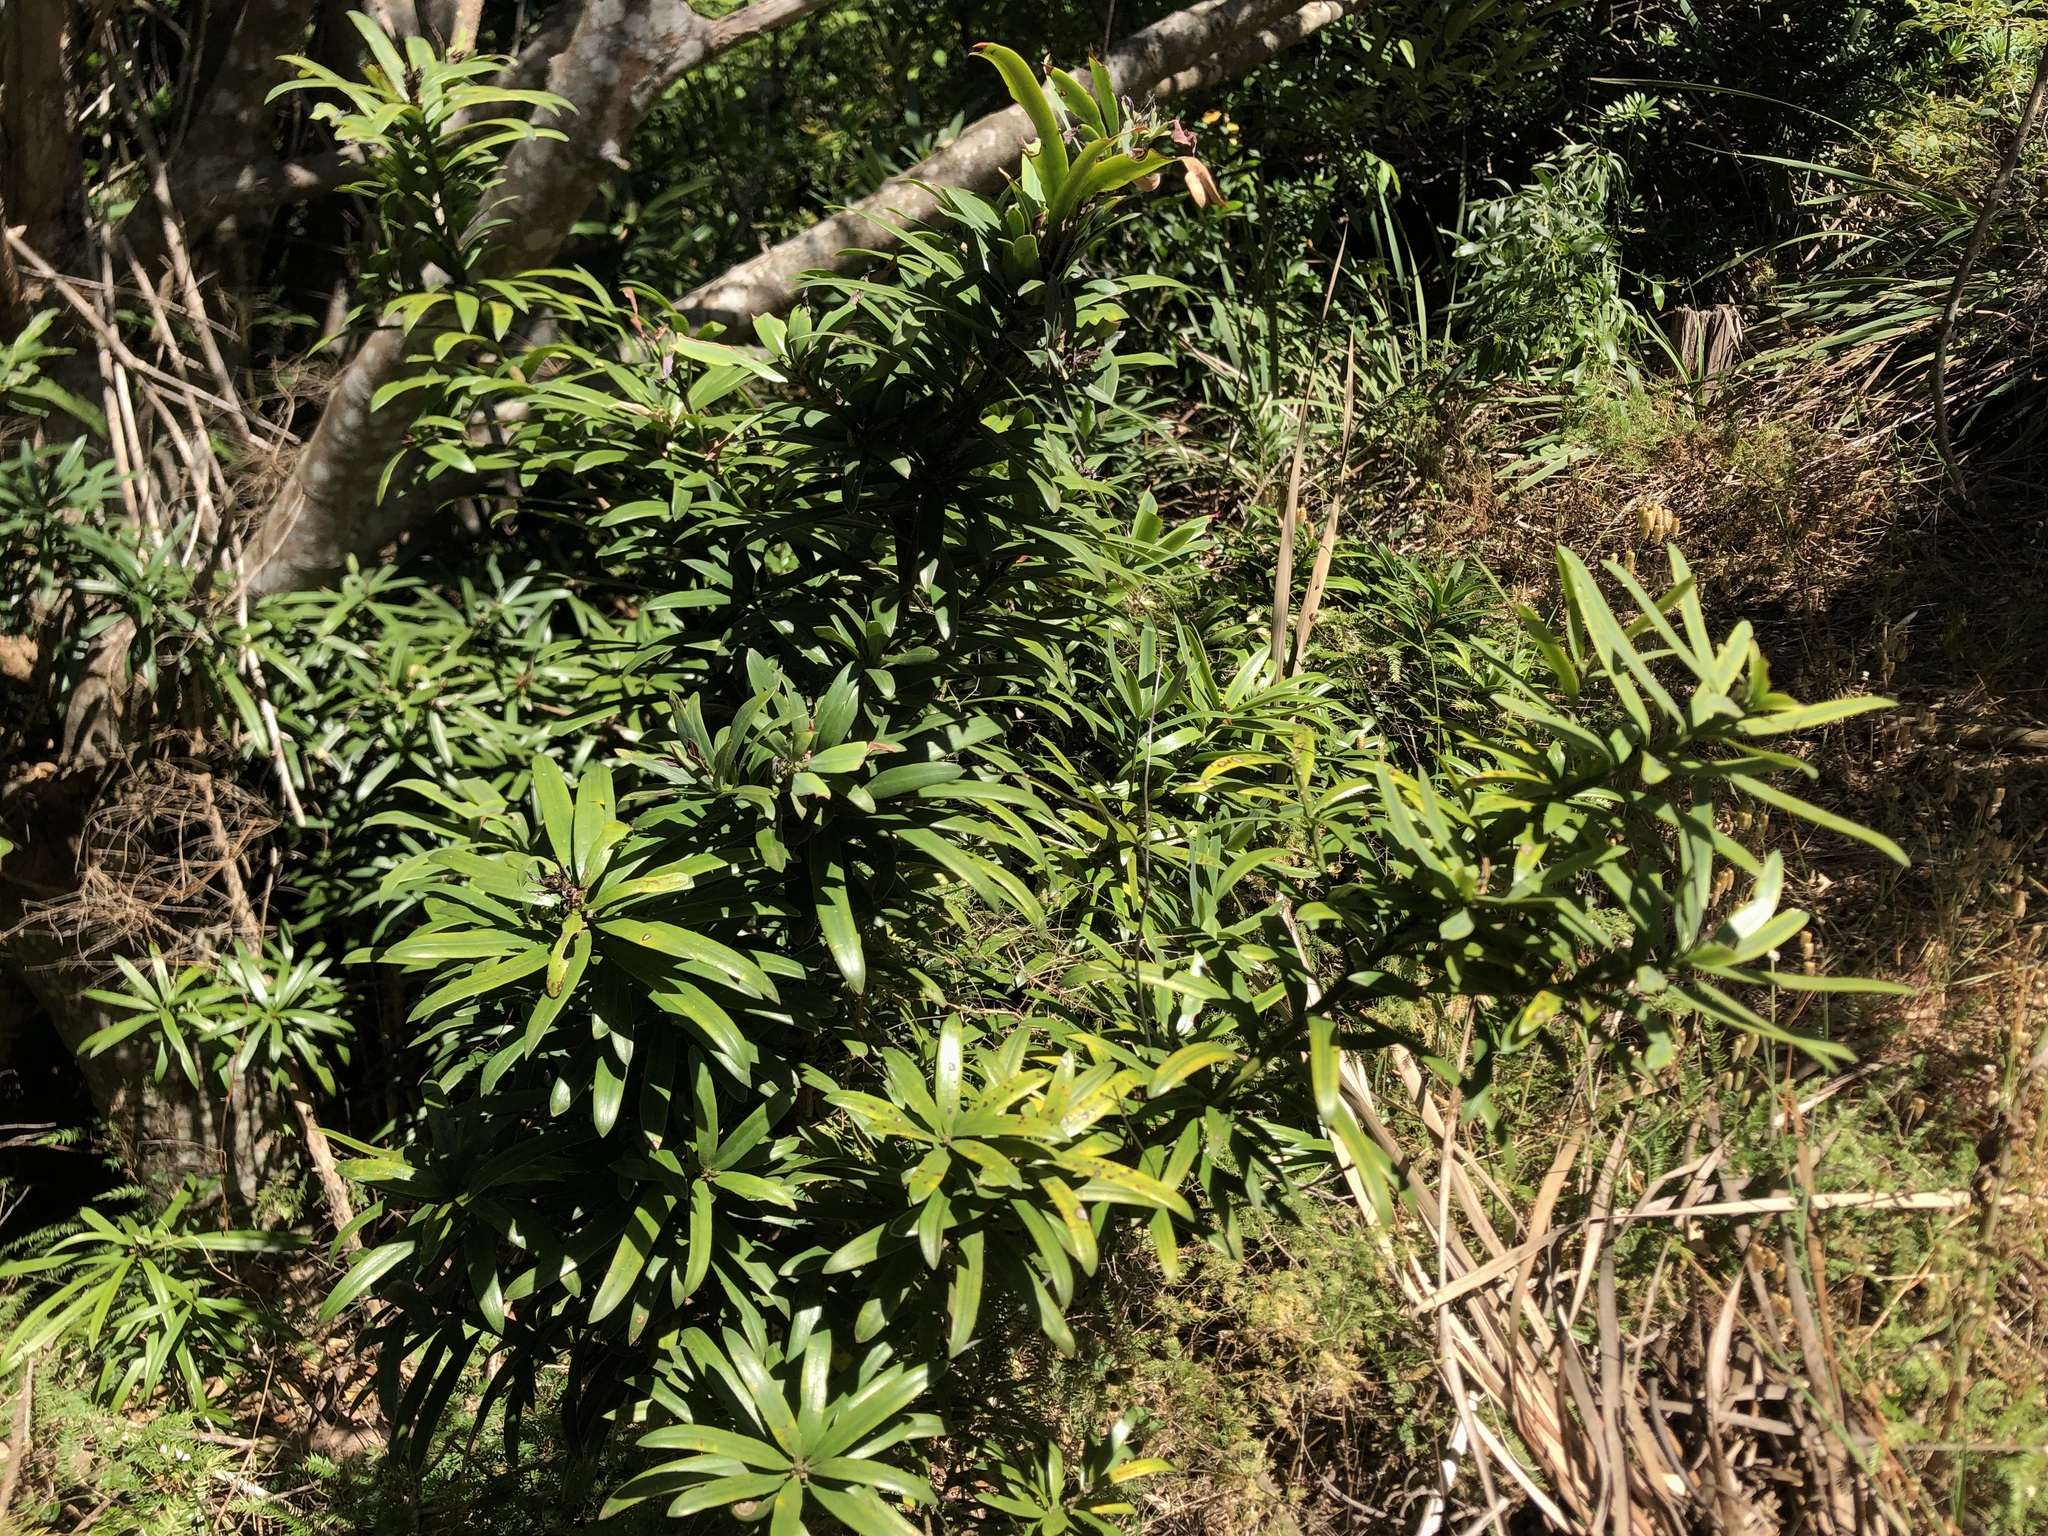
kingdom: Plantae
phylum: Tracheophyta
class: Pinopsida
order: Pinales
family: Podocarpaceae
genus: Podocarpus
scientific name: Podocarpus latifolius
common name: True yellowwood
